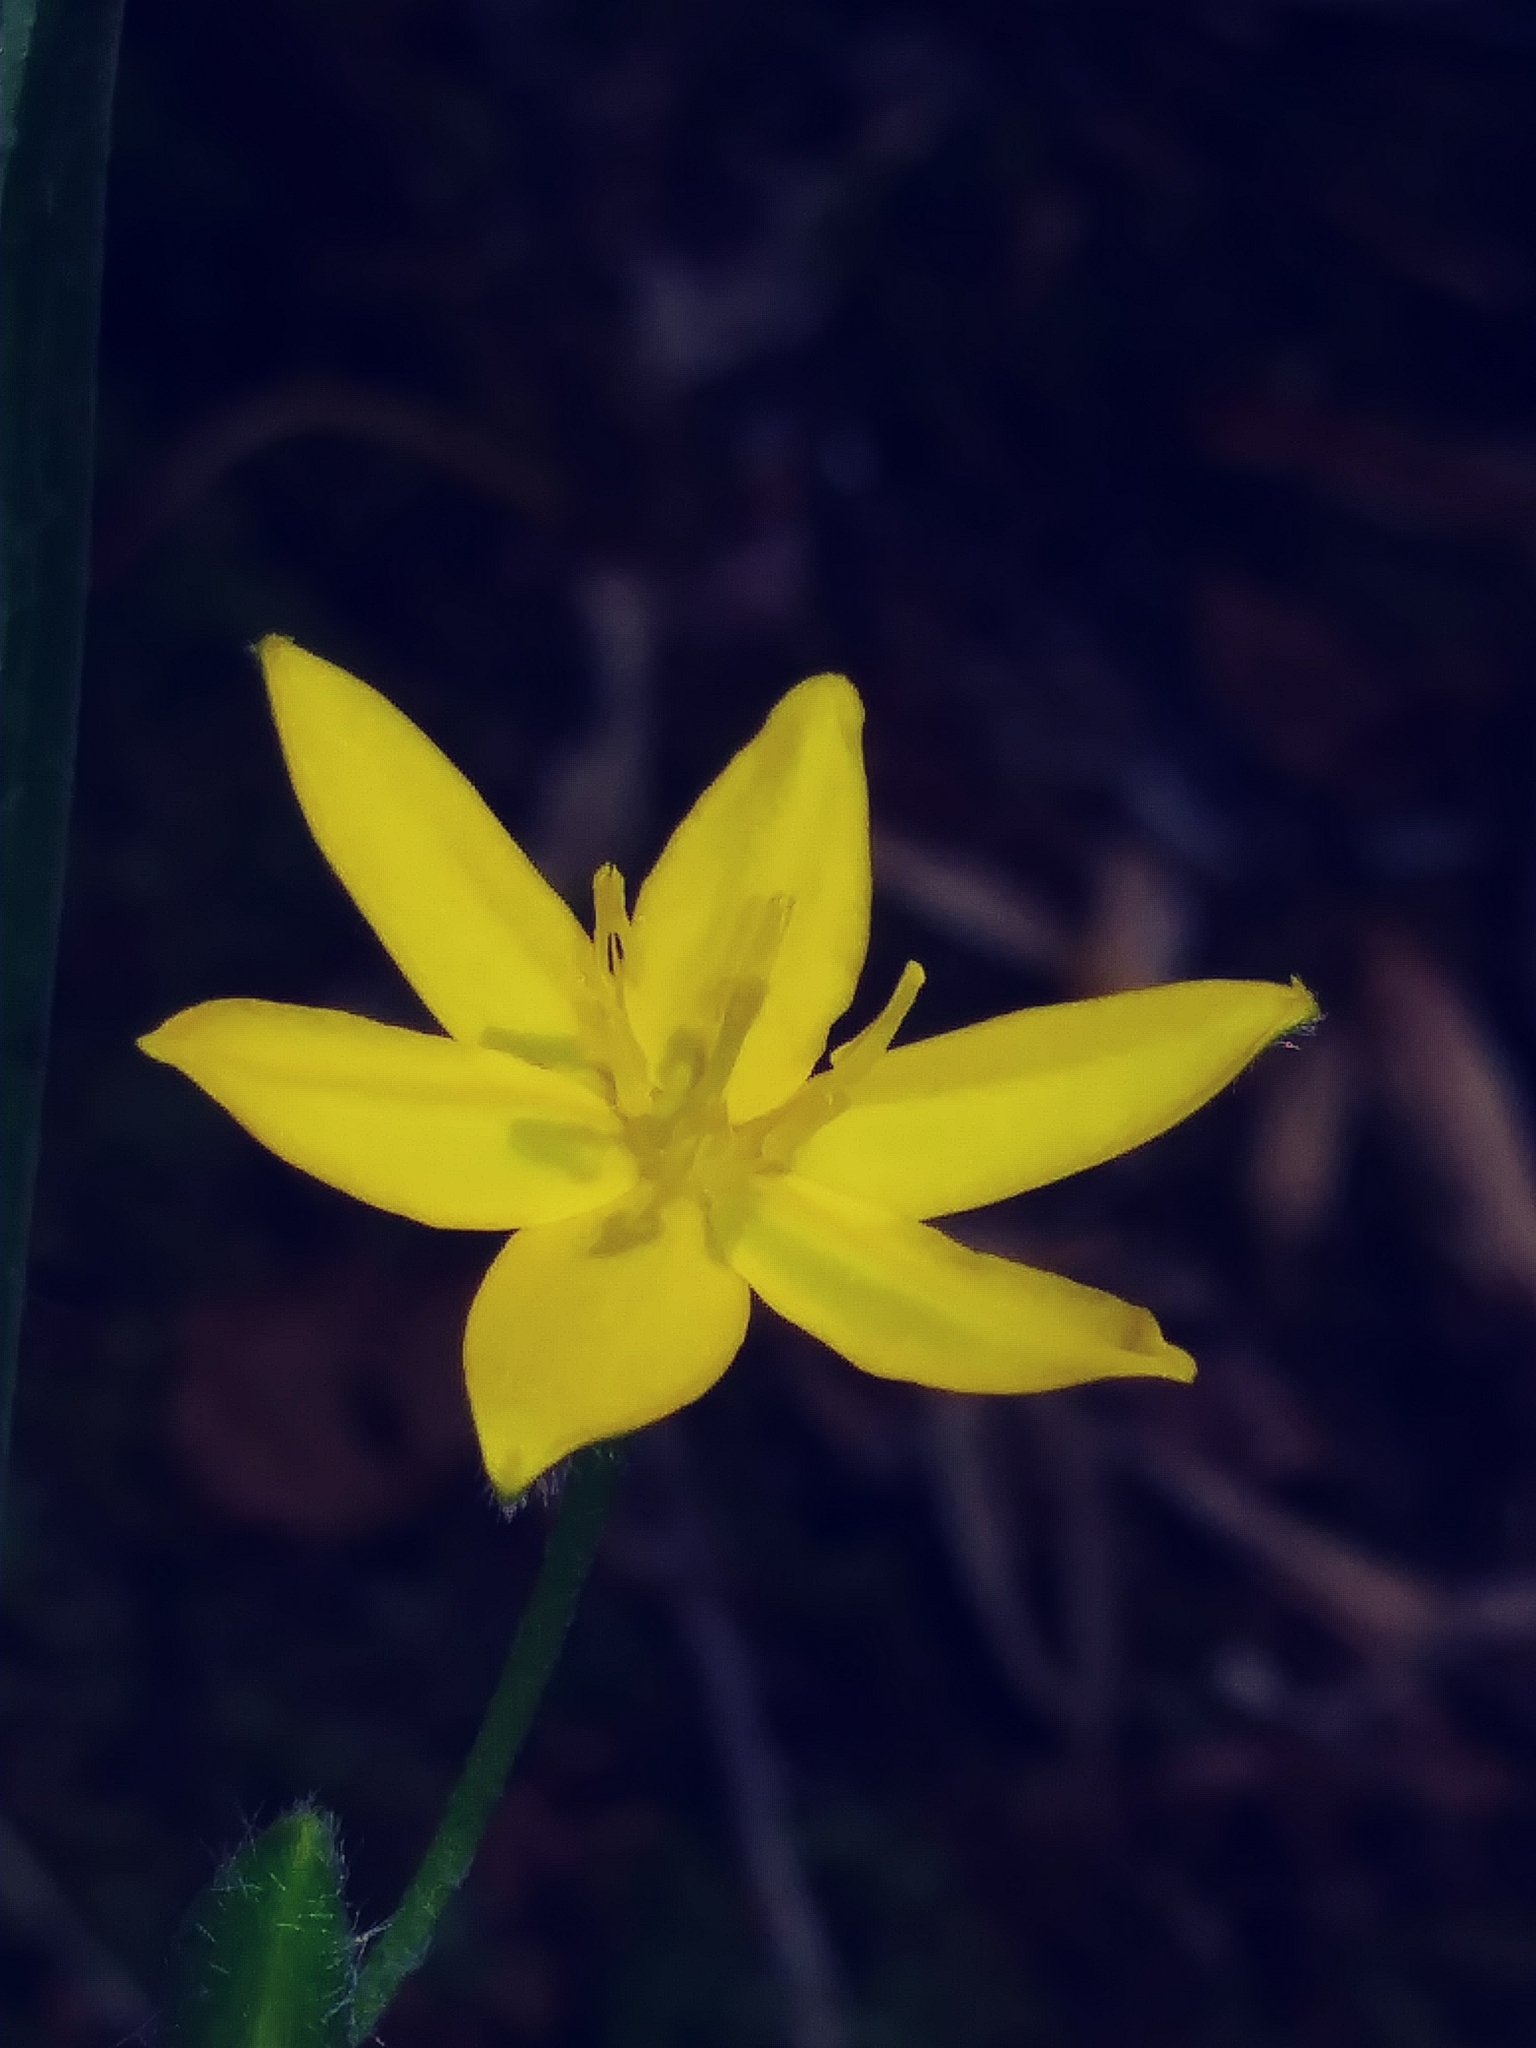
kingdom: Plantae
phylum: Tracheophyta
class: Liliopsida
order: Asparagales
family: Hypoxidaceae
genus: Hypoxis
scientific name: Hypoxis hirsuta
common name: Common goldstar
